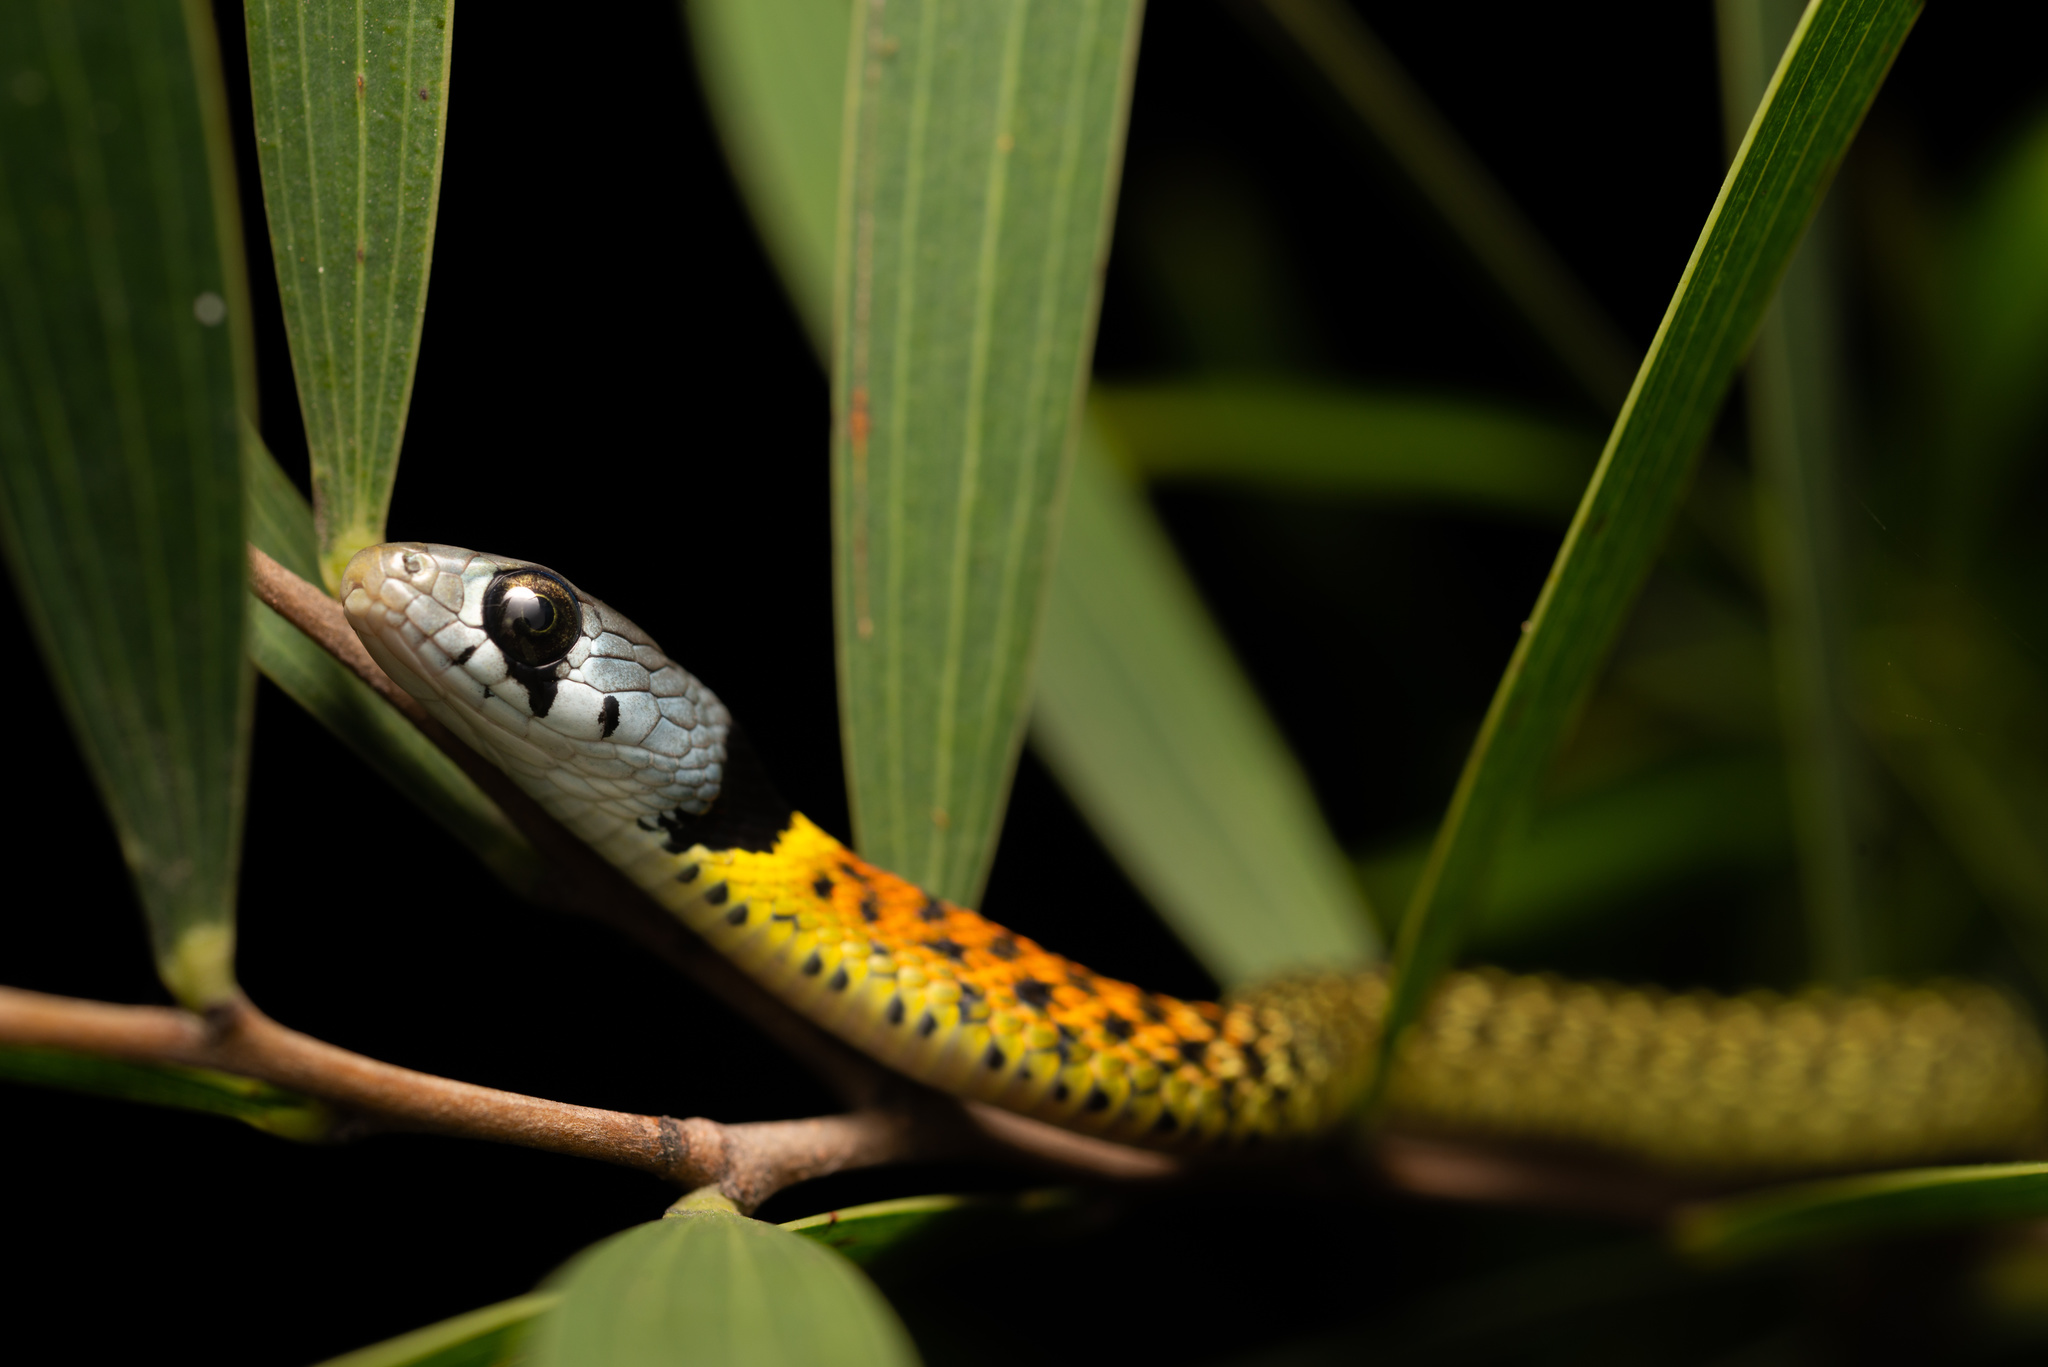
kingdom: Animalia
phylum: Chordata
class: Squamata
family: Colubridae
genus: Rhabdophis
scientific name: Rhabdophis helleri
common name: Heller’s red-necked keelback
